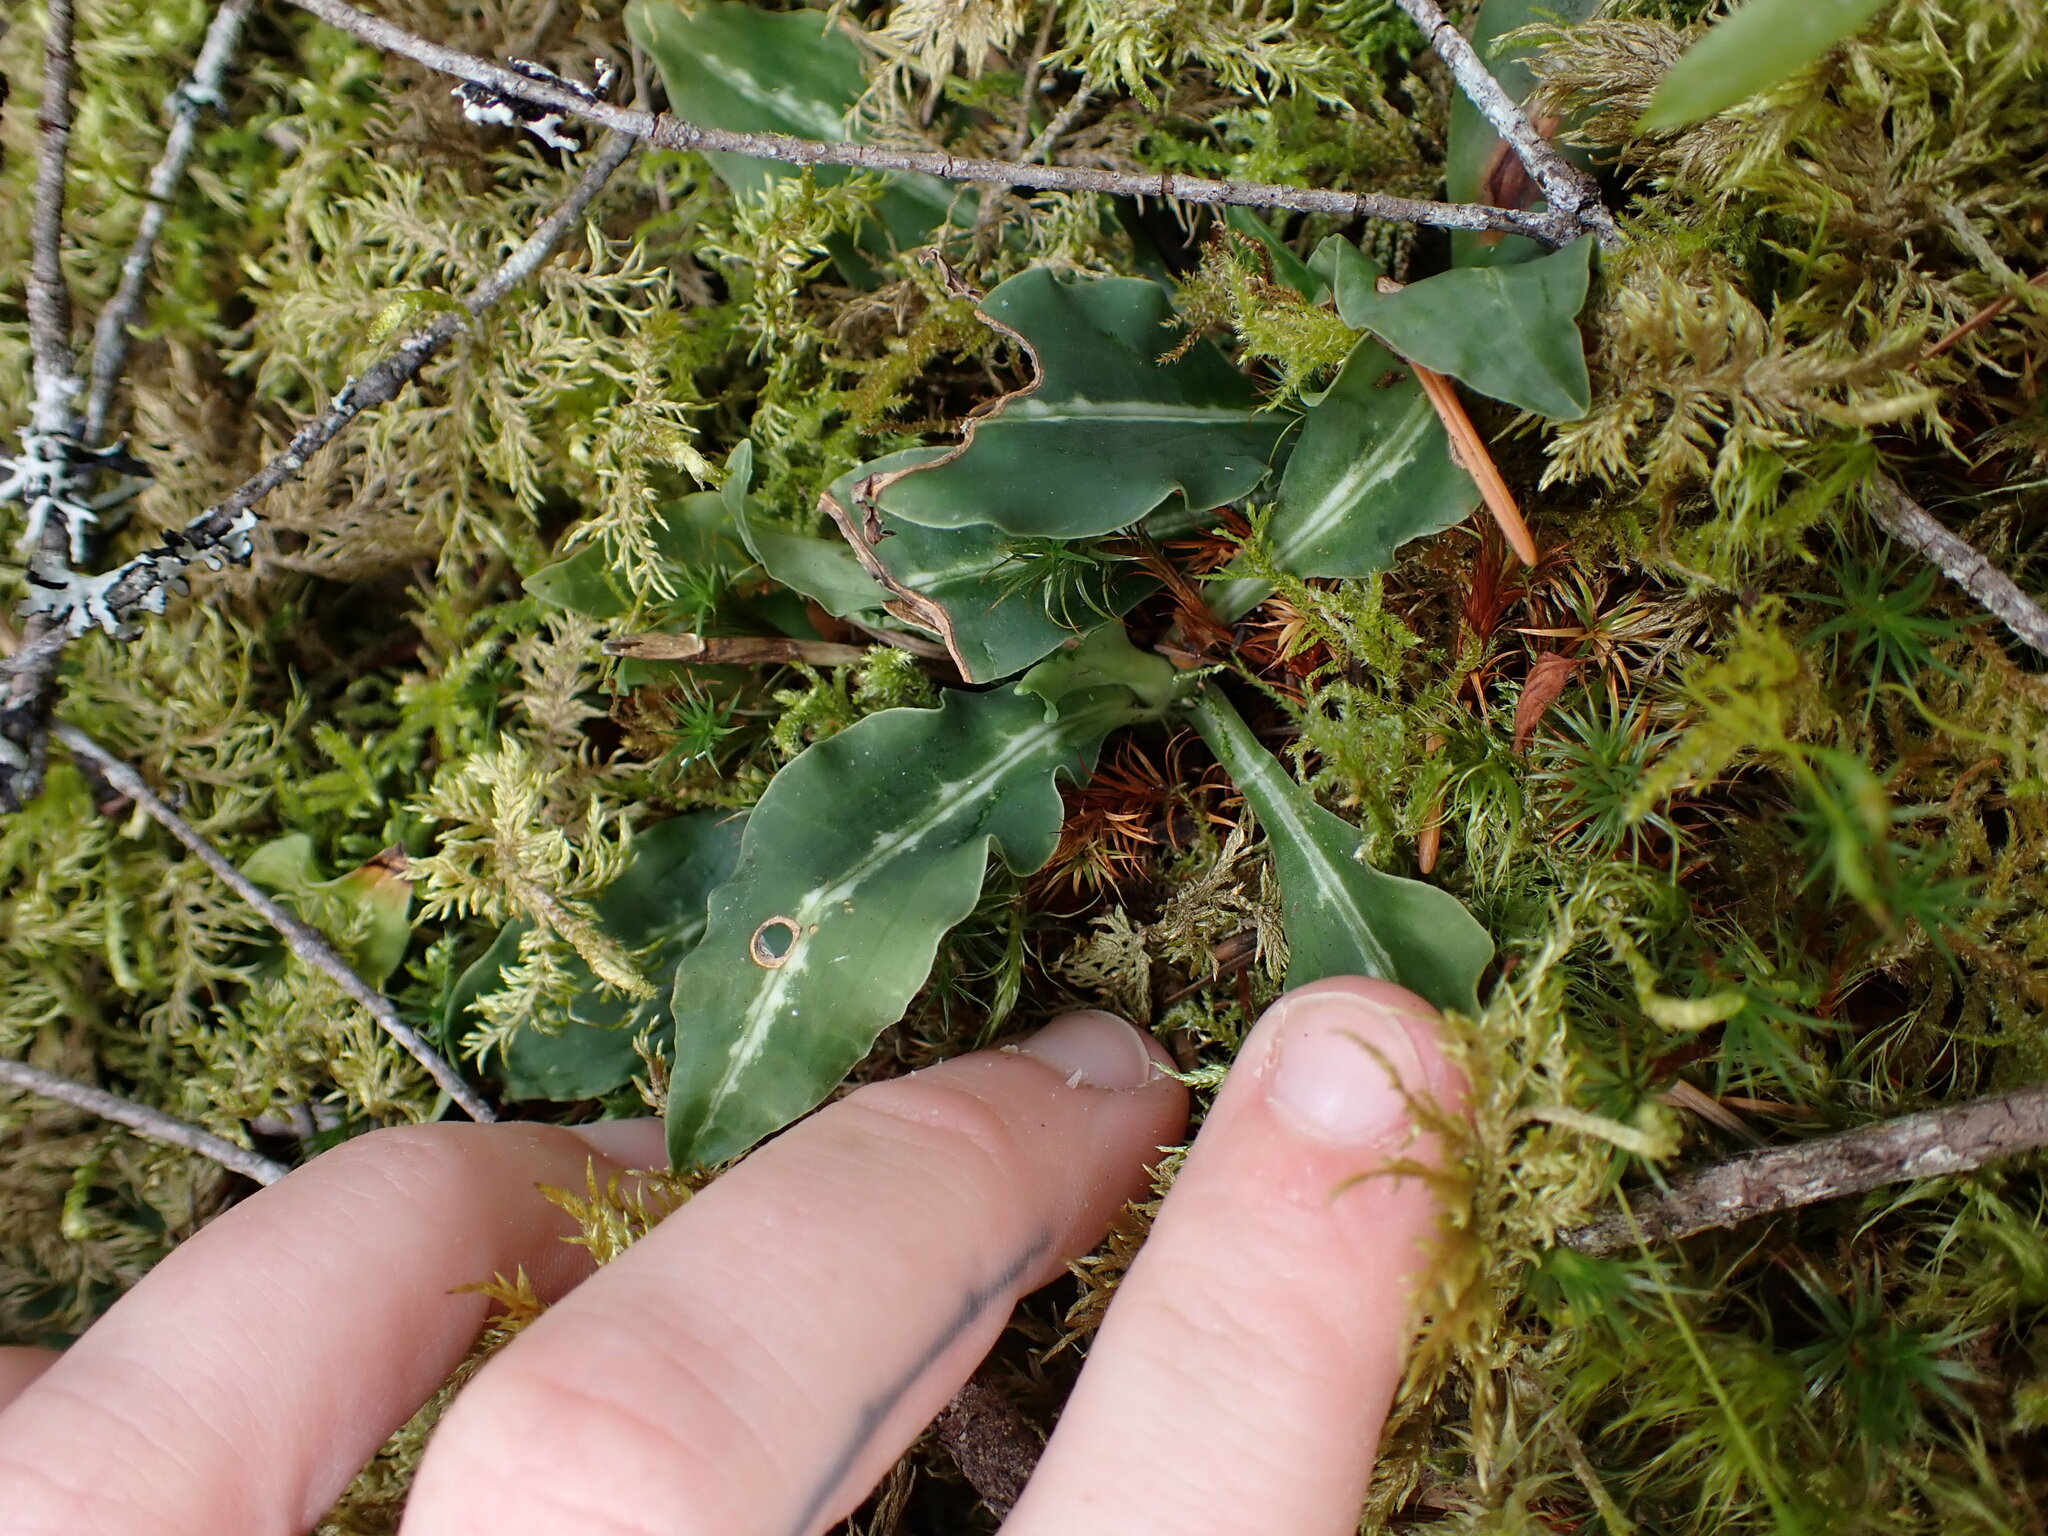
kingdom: Plantae
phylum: Tracheophyta
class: Liliopsida
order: Asparagales
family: Orchidaceae
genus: Goodyera
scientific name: Goodyera oblongifolia
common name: Giant rattlesnake-plantain
